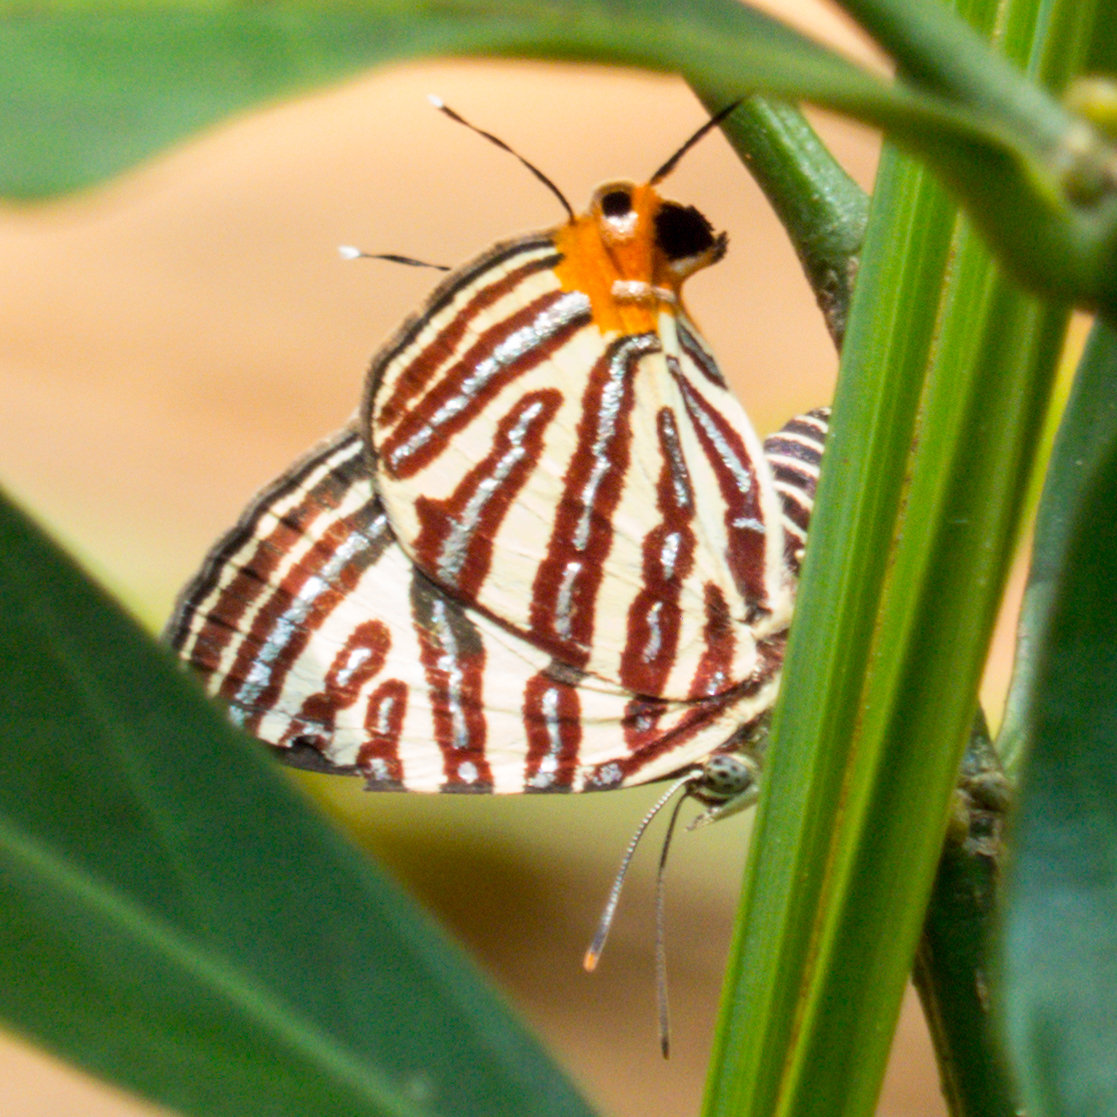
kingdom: Animalia
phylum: Arthropoda
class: Insecta
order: Lepidoptera
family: Lycaenidae
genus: Cigaritis
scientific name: Cigaritis lohita
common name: Long-banded silverline
